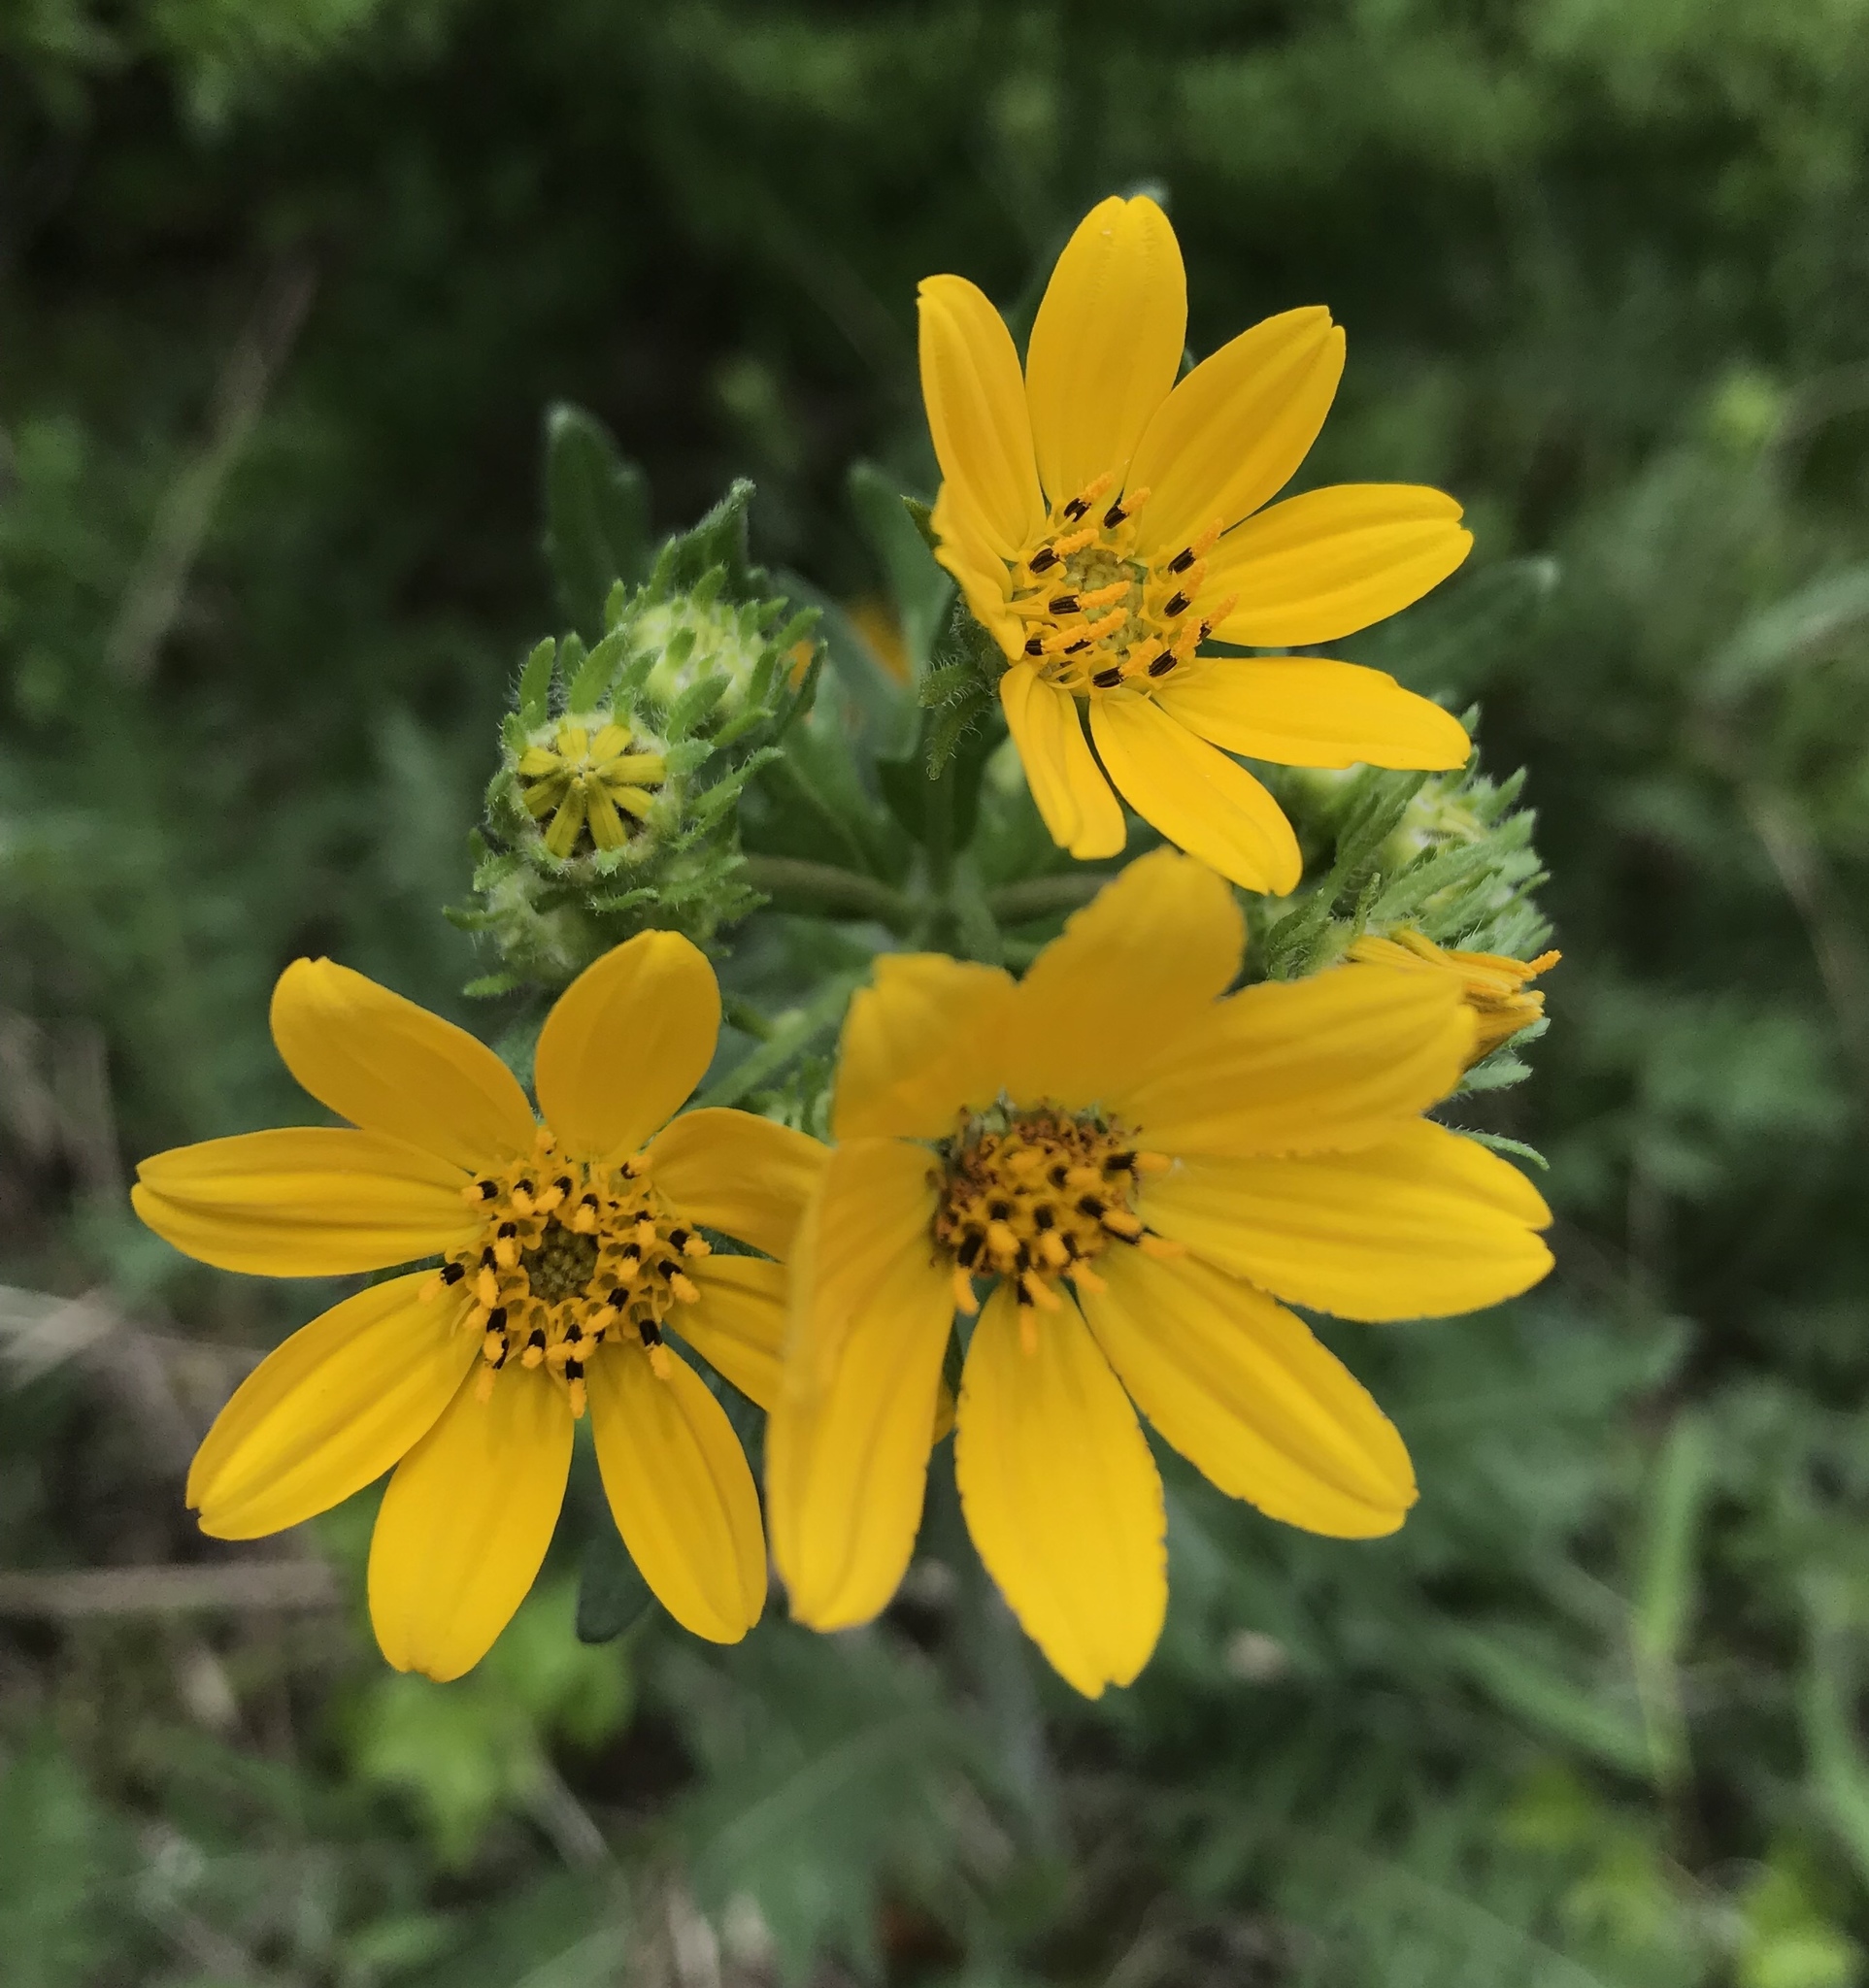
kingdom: Plantae
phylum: Tracheophyta
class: Magnoliopsida
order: Asterales
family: Asteraceae
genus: Engelmannia
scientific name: Engelmannia peristenia
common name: Engelmann's daisy
